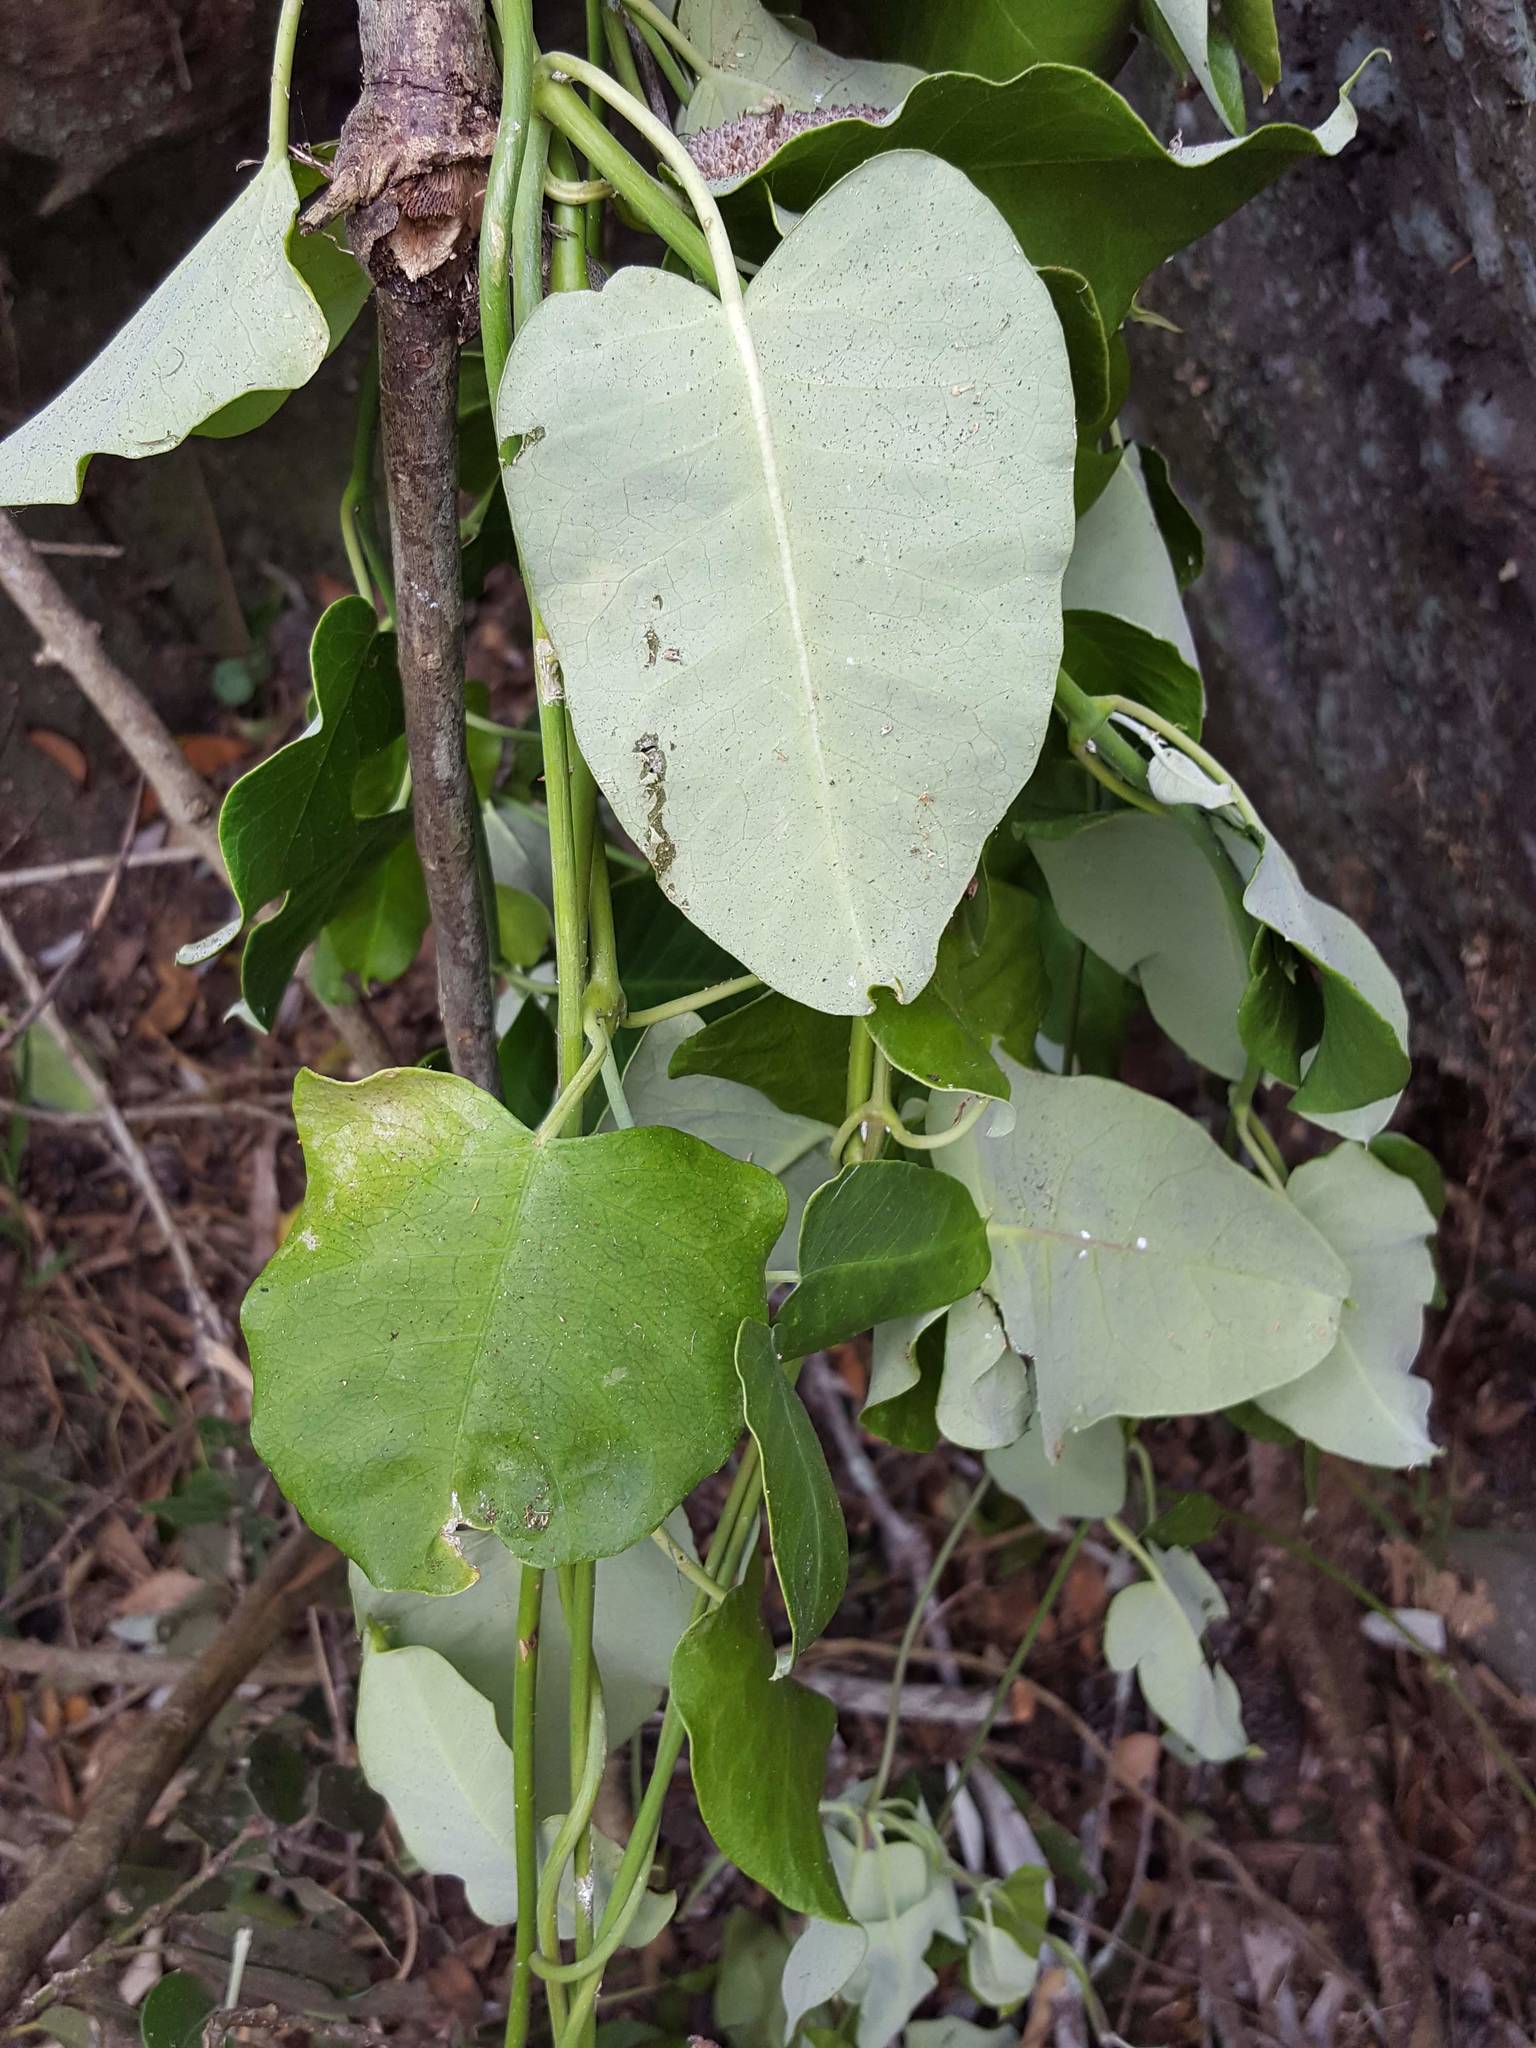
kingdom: Plantae
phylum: Tracheophyta
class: Magnoliopsida
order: Gentianales
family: Apocynaceae
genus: Araujia
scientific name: Araujia sericifera
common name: White bladderflower
